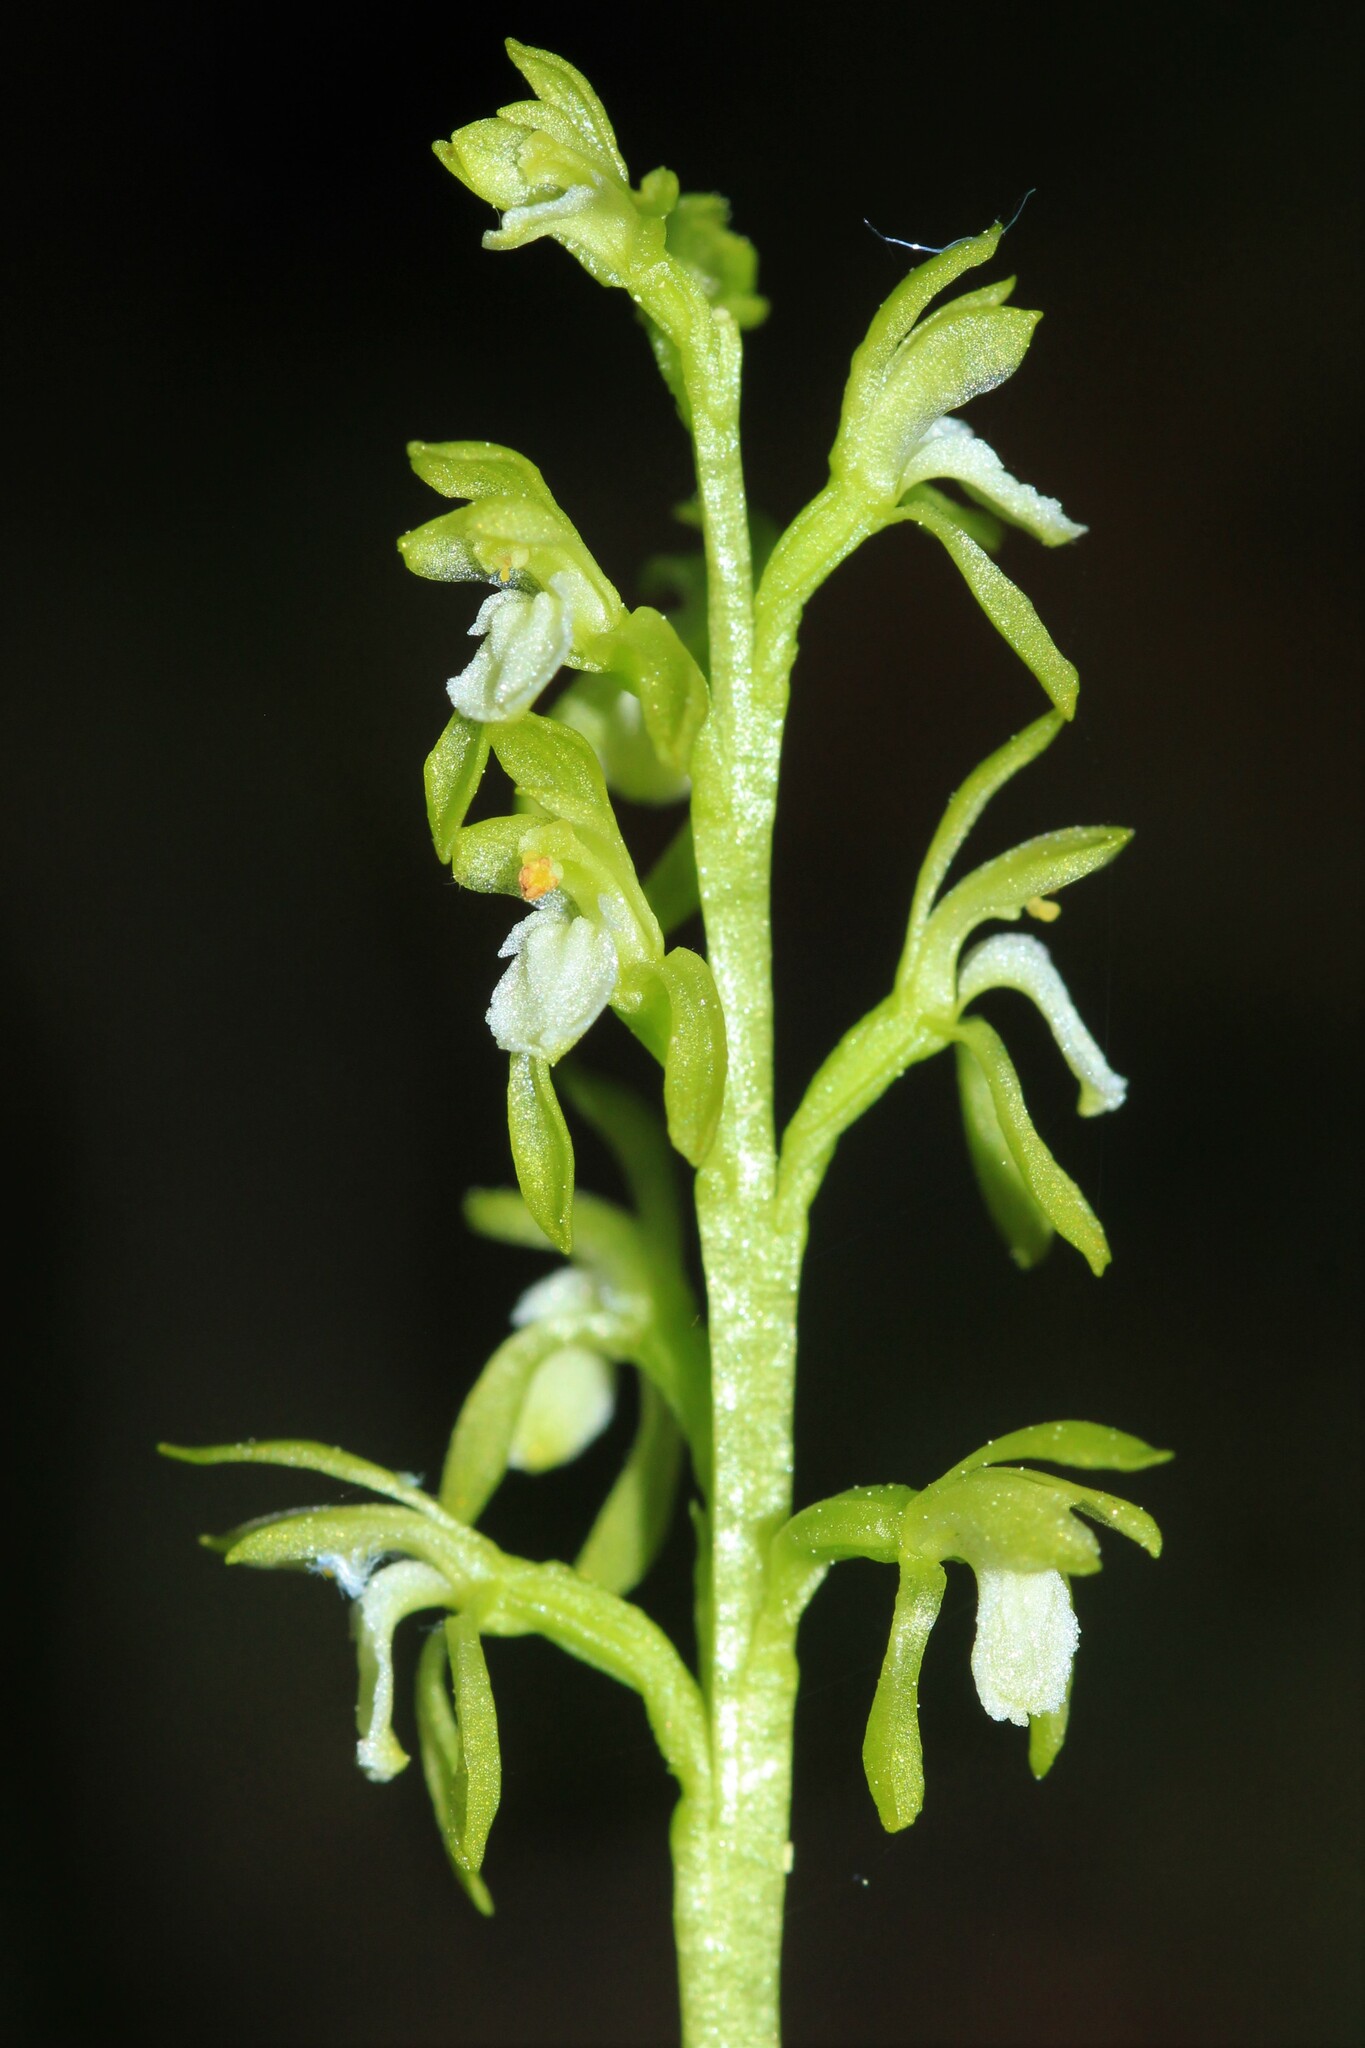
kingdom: Plantae
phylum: Tracheophyta
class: Liliopsida
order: Asparagales
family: Orchidaceae
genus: Corallorhiza
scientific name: Corallorhiza trifida
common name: Yellow coralroot
